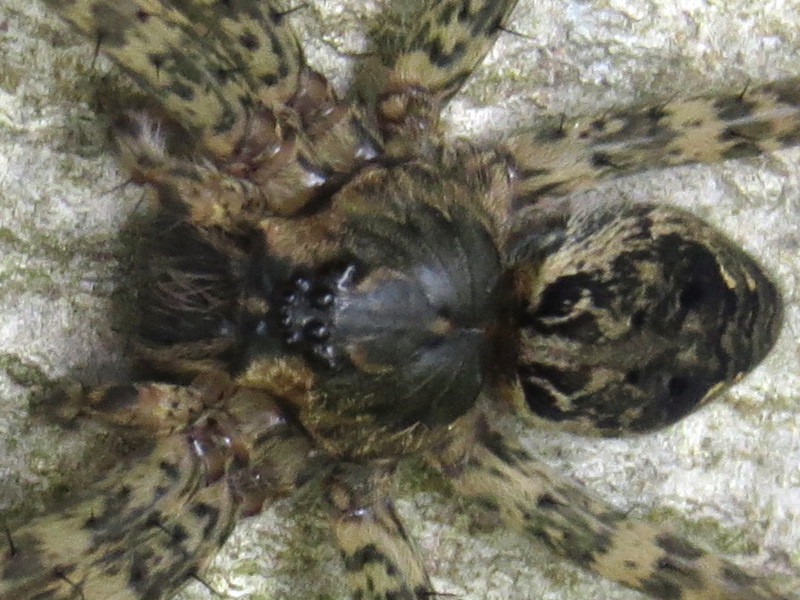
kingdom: Animalia
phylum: Arthropoda
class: Arachnida
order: Araneae
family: Pisauridae
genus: Dolomedes
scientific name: Dolomedes tenebrosus
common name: Dark fishing spider
